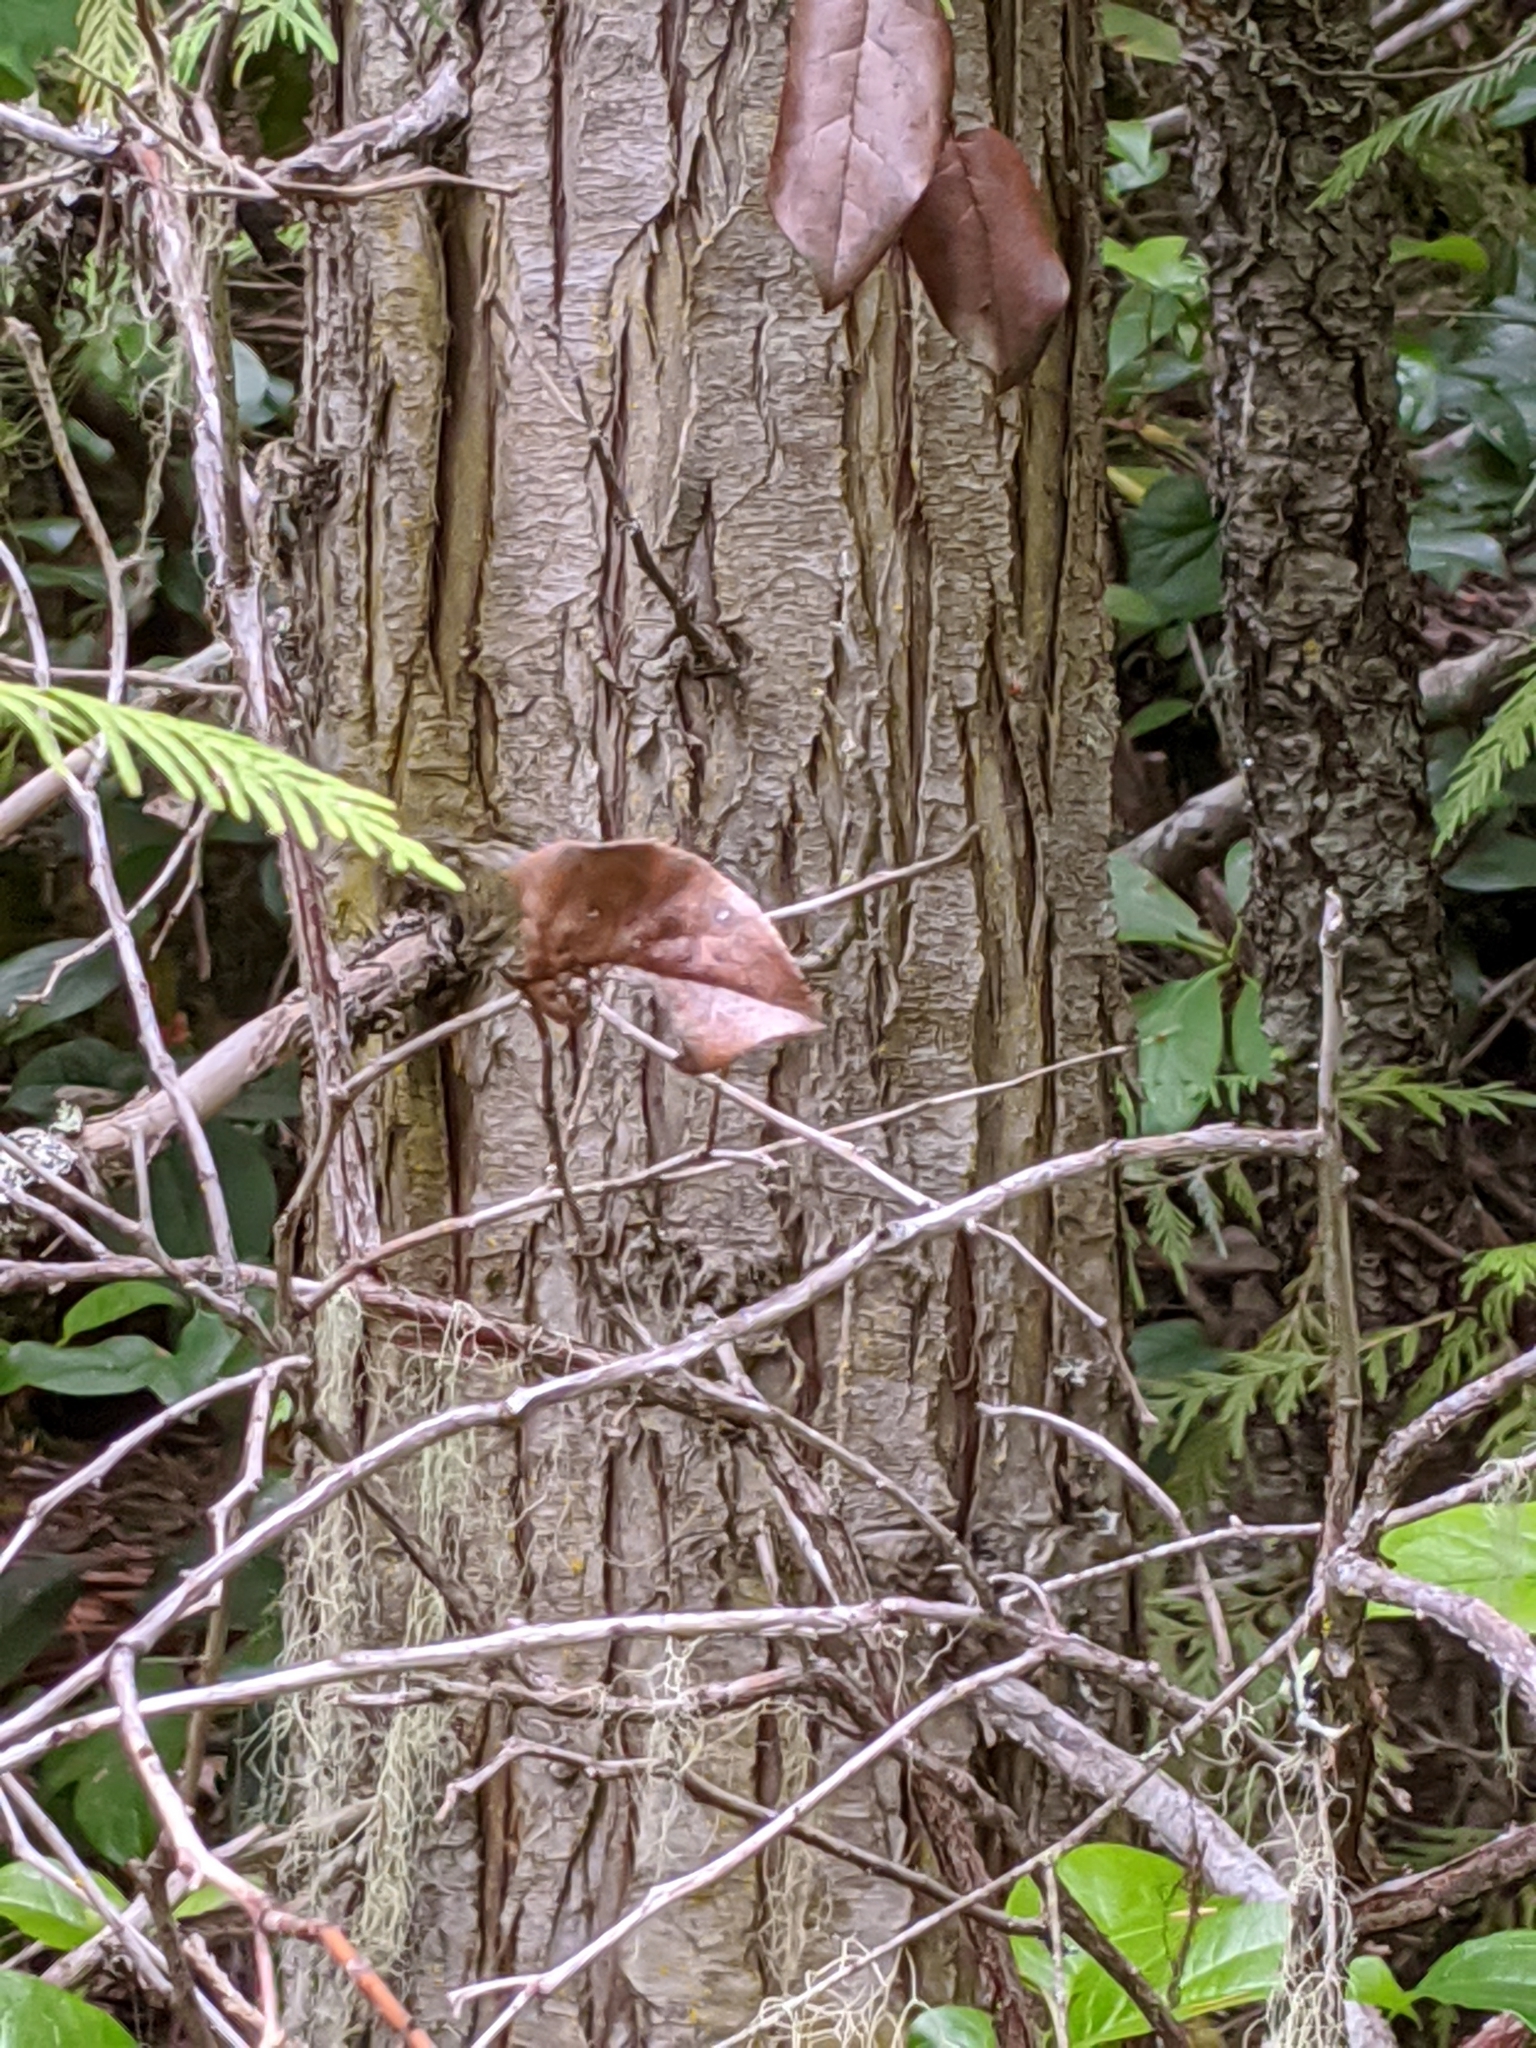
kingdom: Plantae
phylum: Tracheophyta
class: Pinopsida
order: Pinales
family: Cupressaceae
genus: Thuja
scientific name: Thuja plicata
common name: Western red-cedar
